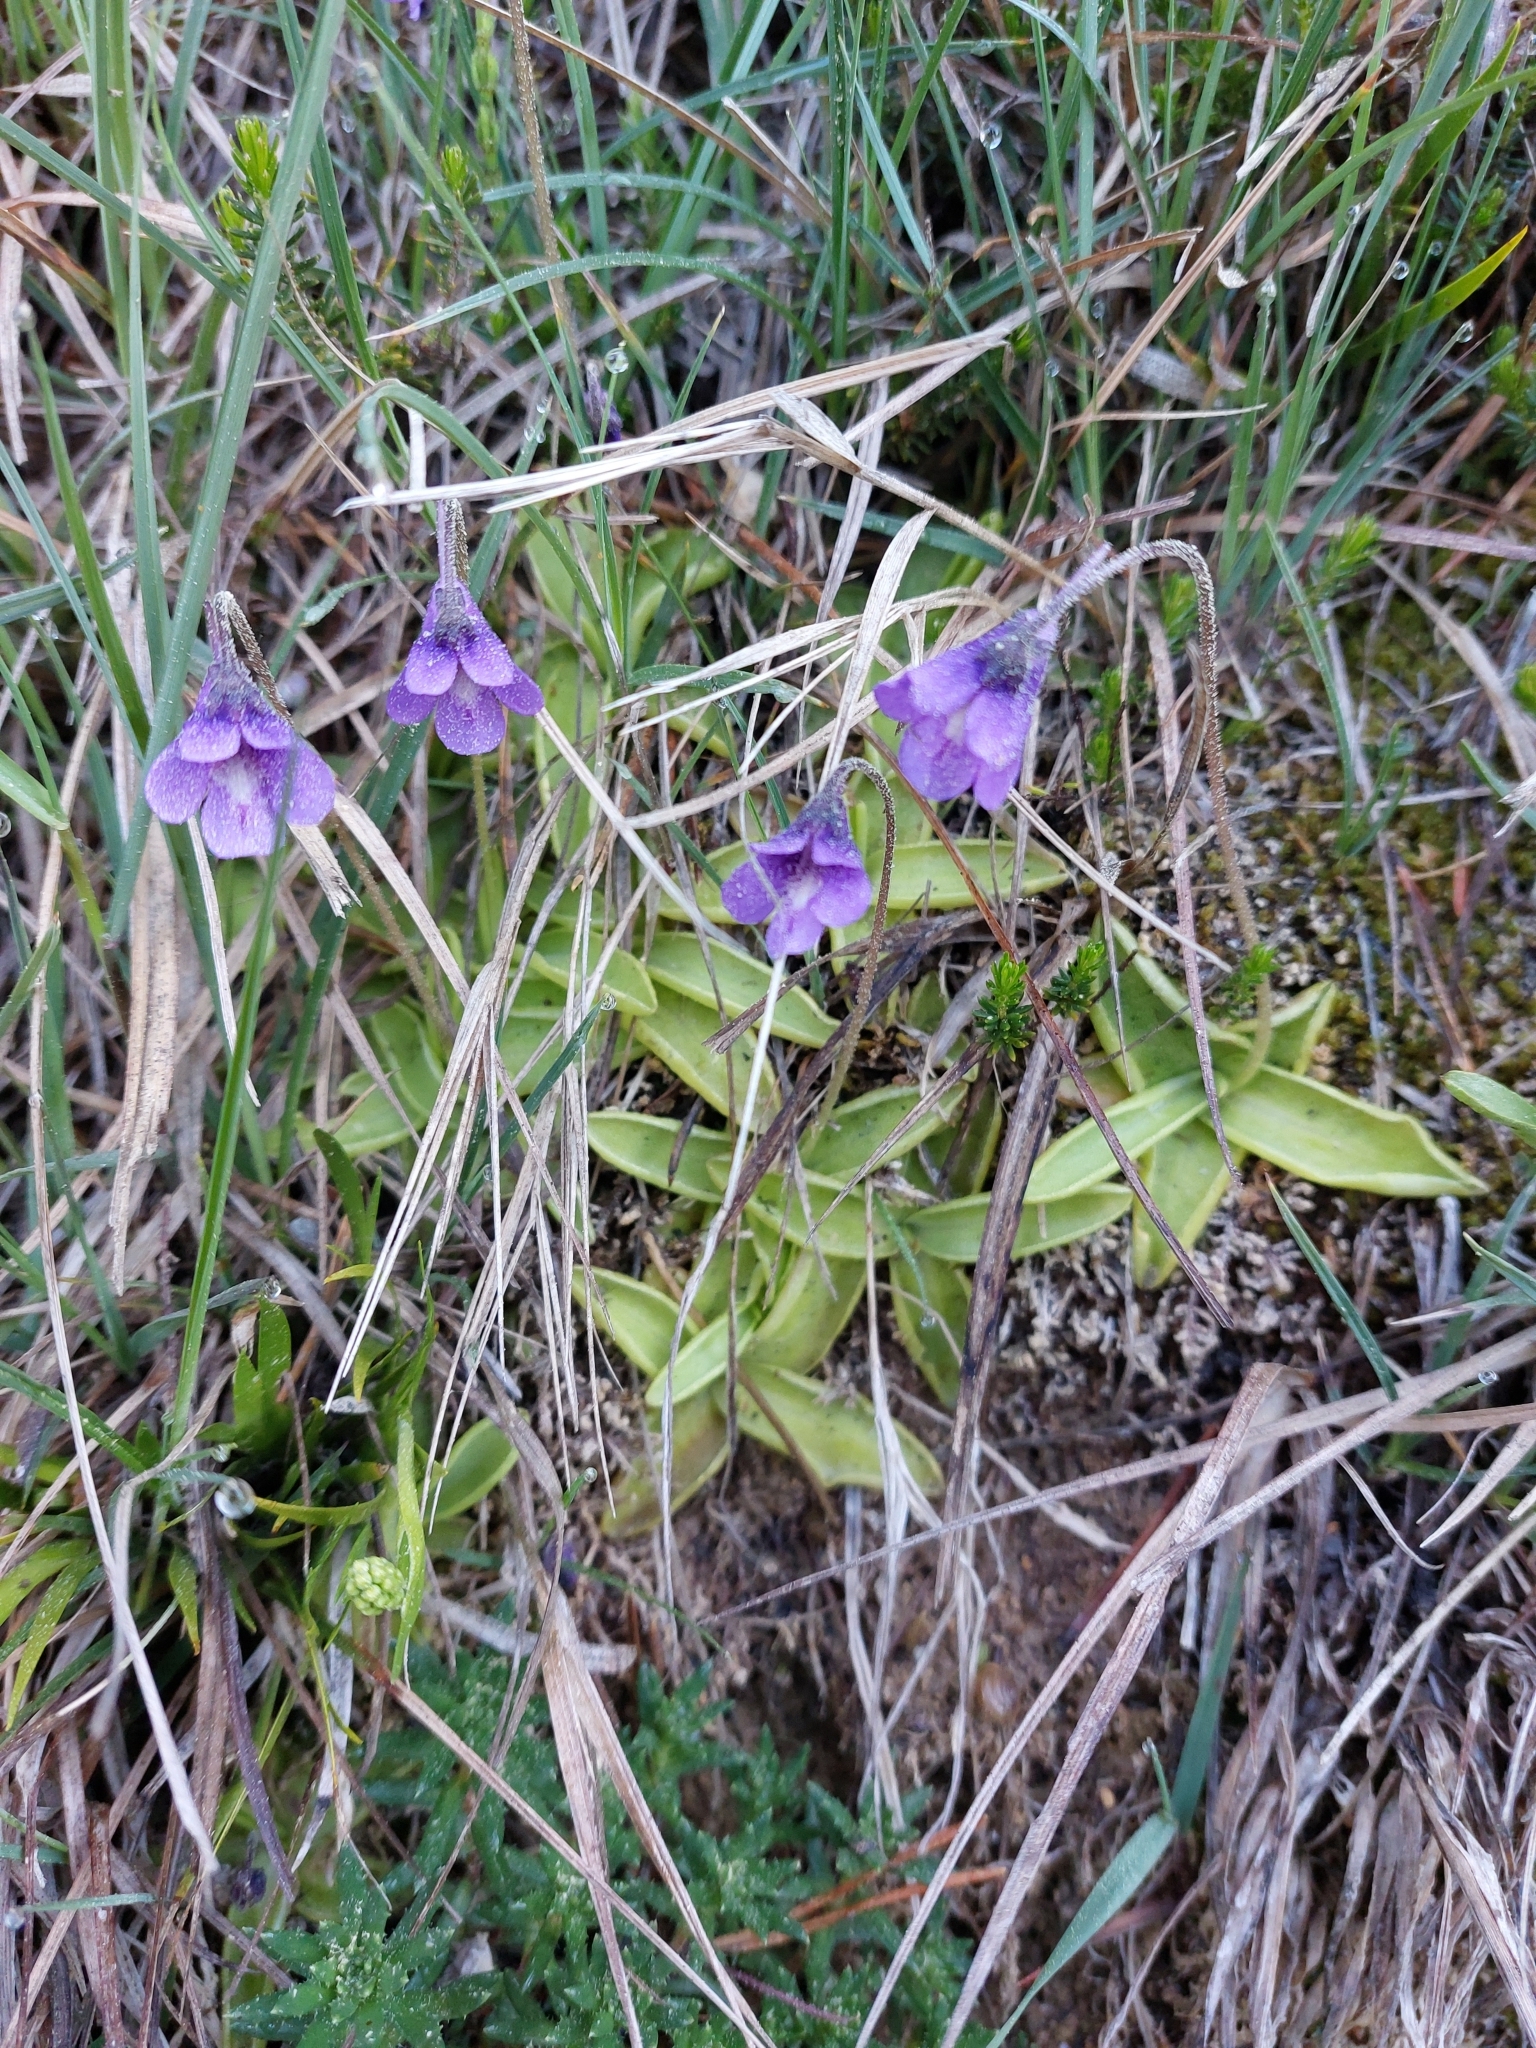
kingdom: Plantae
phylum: Tracheophyta
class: Magnoliopsida
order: Lamiales
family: Lentibulariaceae
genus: Pinguicula
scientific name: Pinguicula vulgaris
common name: Common butterwort
